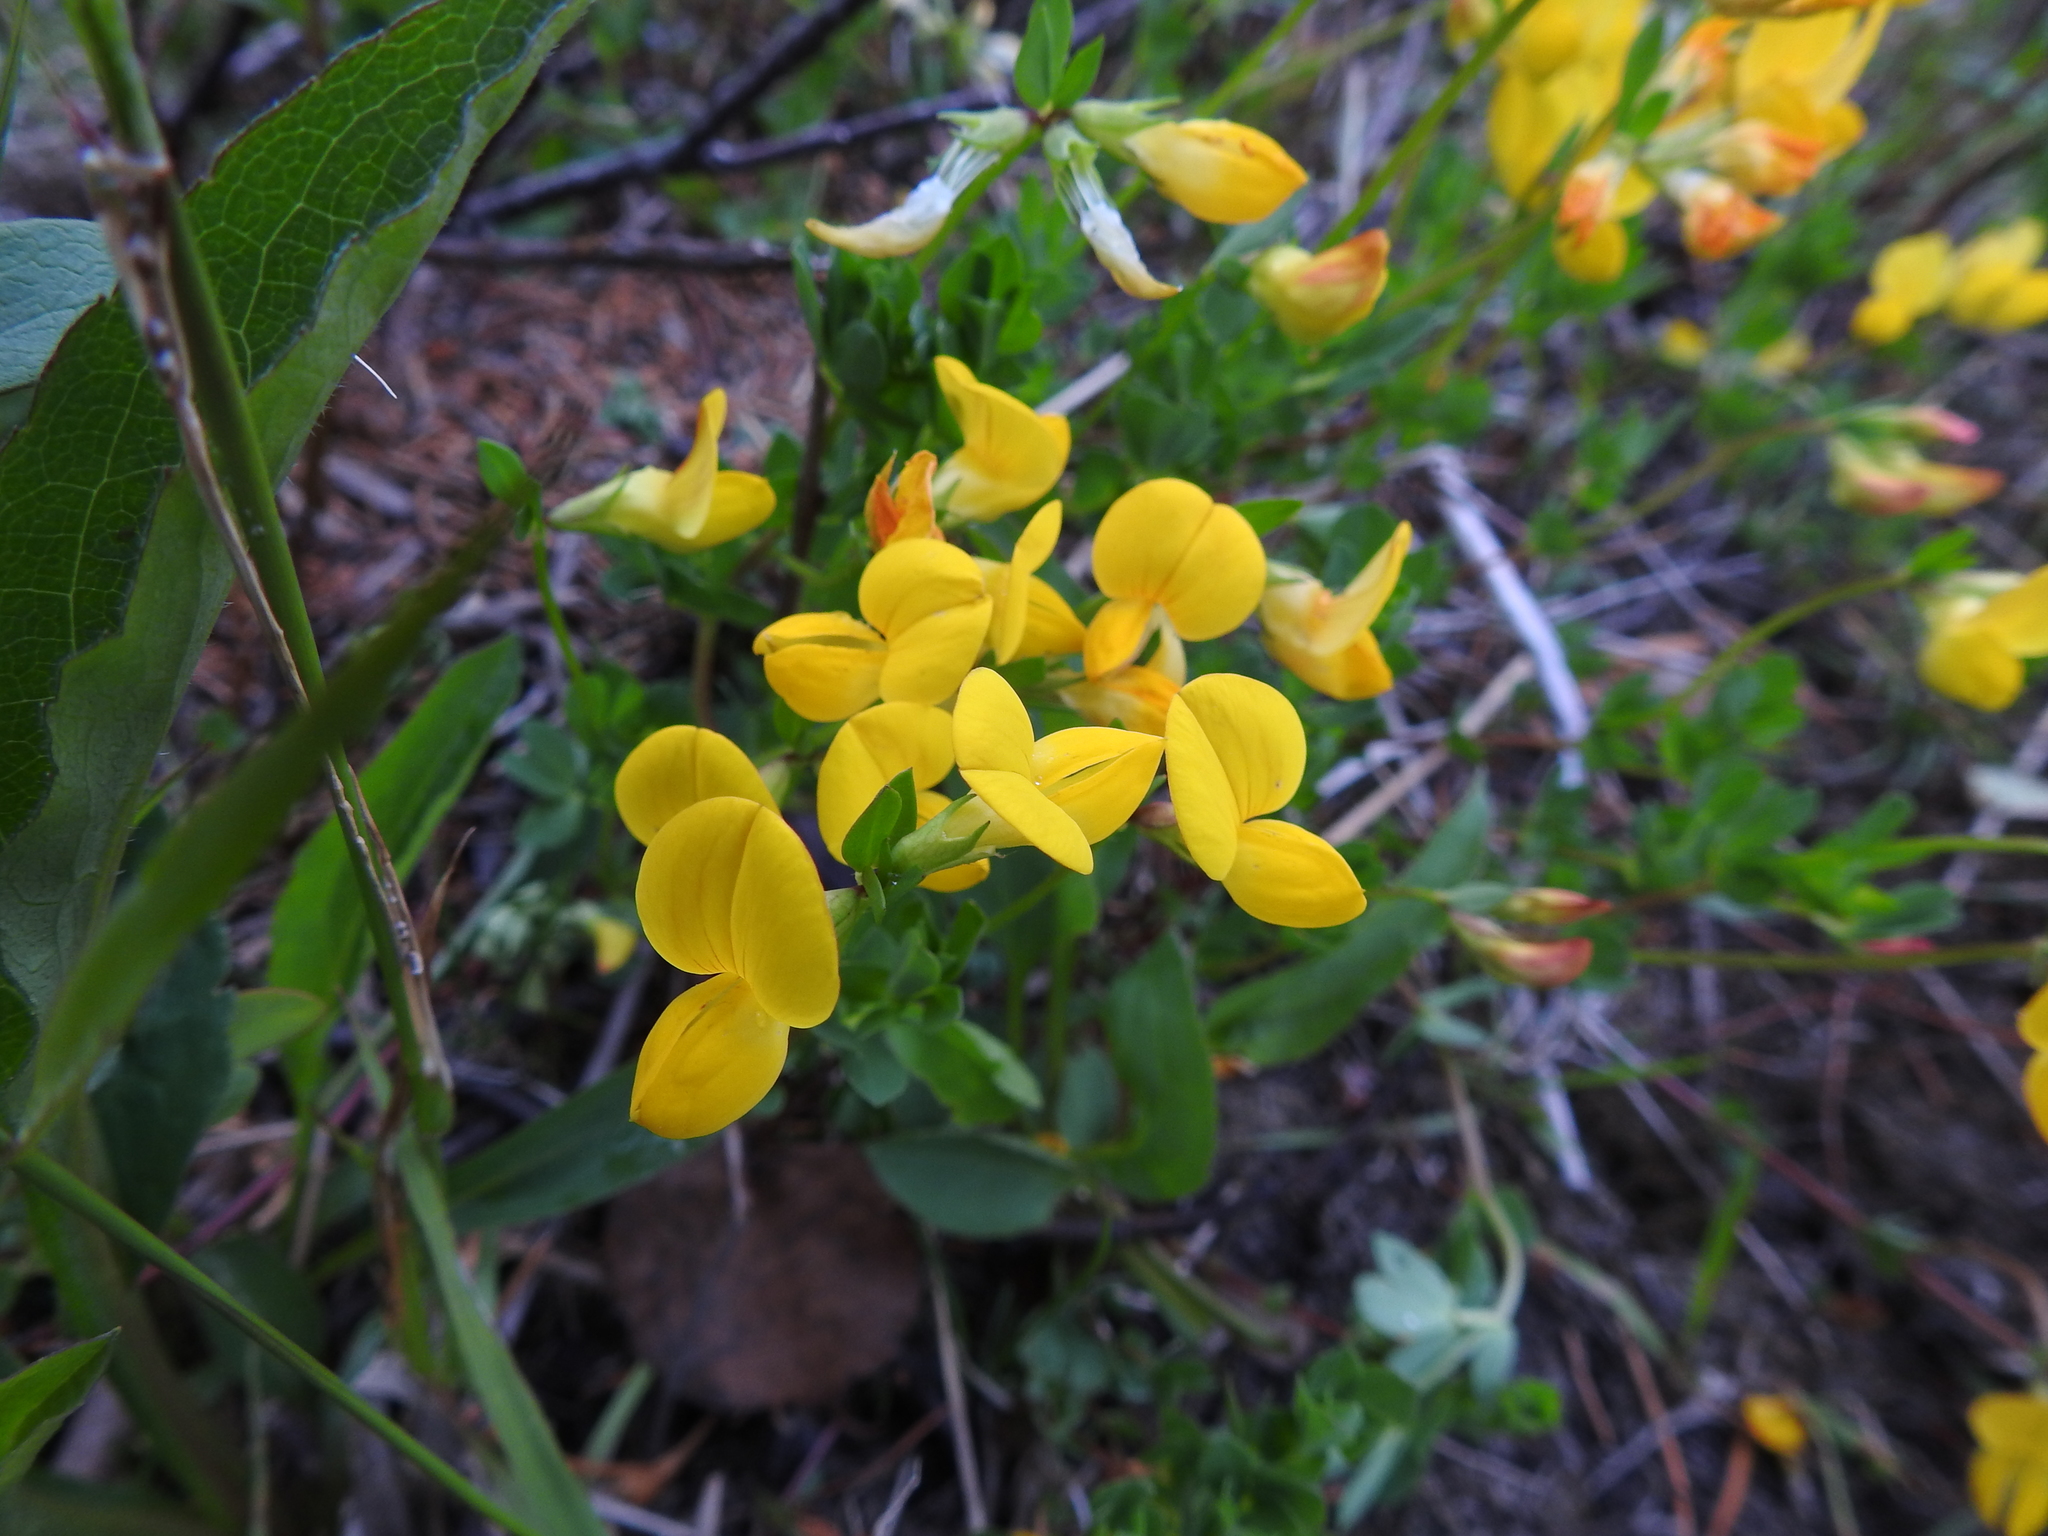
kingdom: Plantae
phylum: Tracheophyta
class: Magnoliopsida
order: Fabales
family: Fabaceae
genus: Lotus
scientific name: Lotus corniculatus
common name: Common bird's-foot-trefoil
